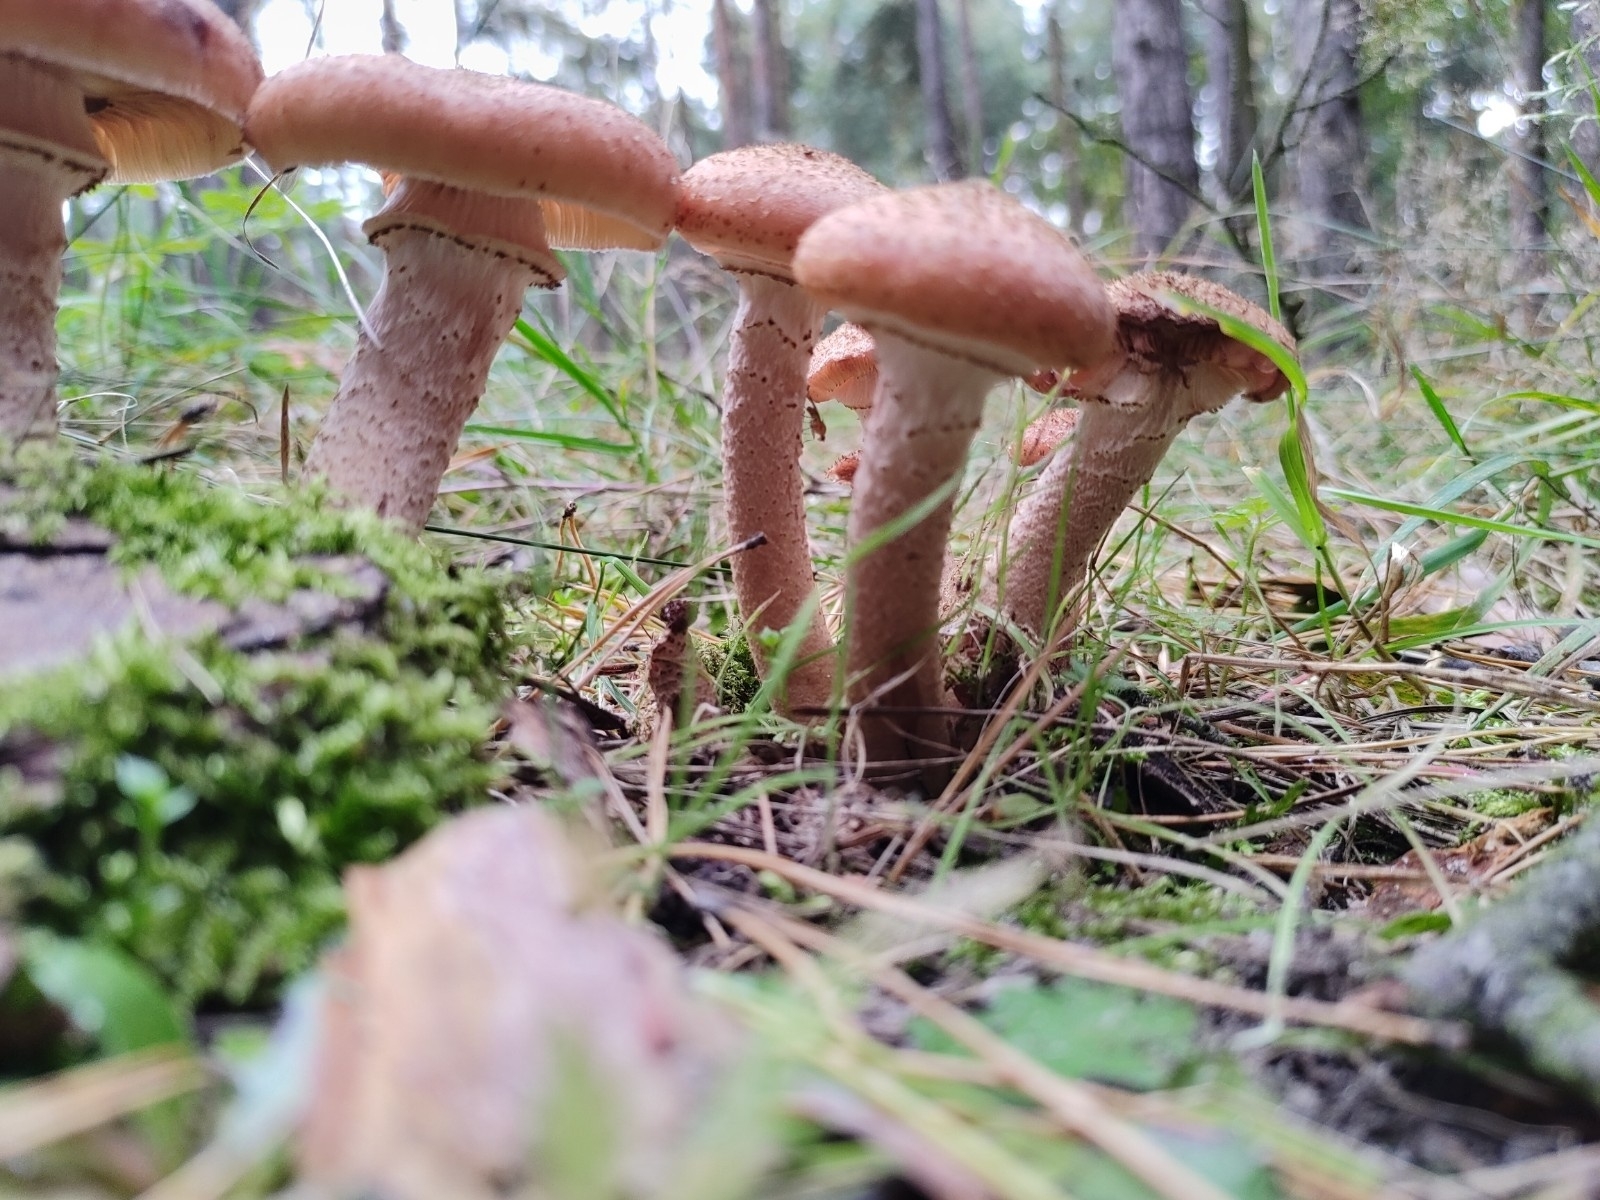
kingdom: Fungi
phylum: Basidiomycota
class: Agaricomycetes
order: Agaricales
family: Physalacriaceae
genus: Armillaria
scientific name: Armillaria ostoyae
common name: Dark honey fungus
